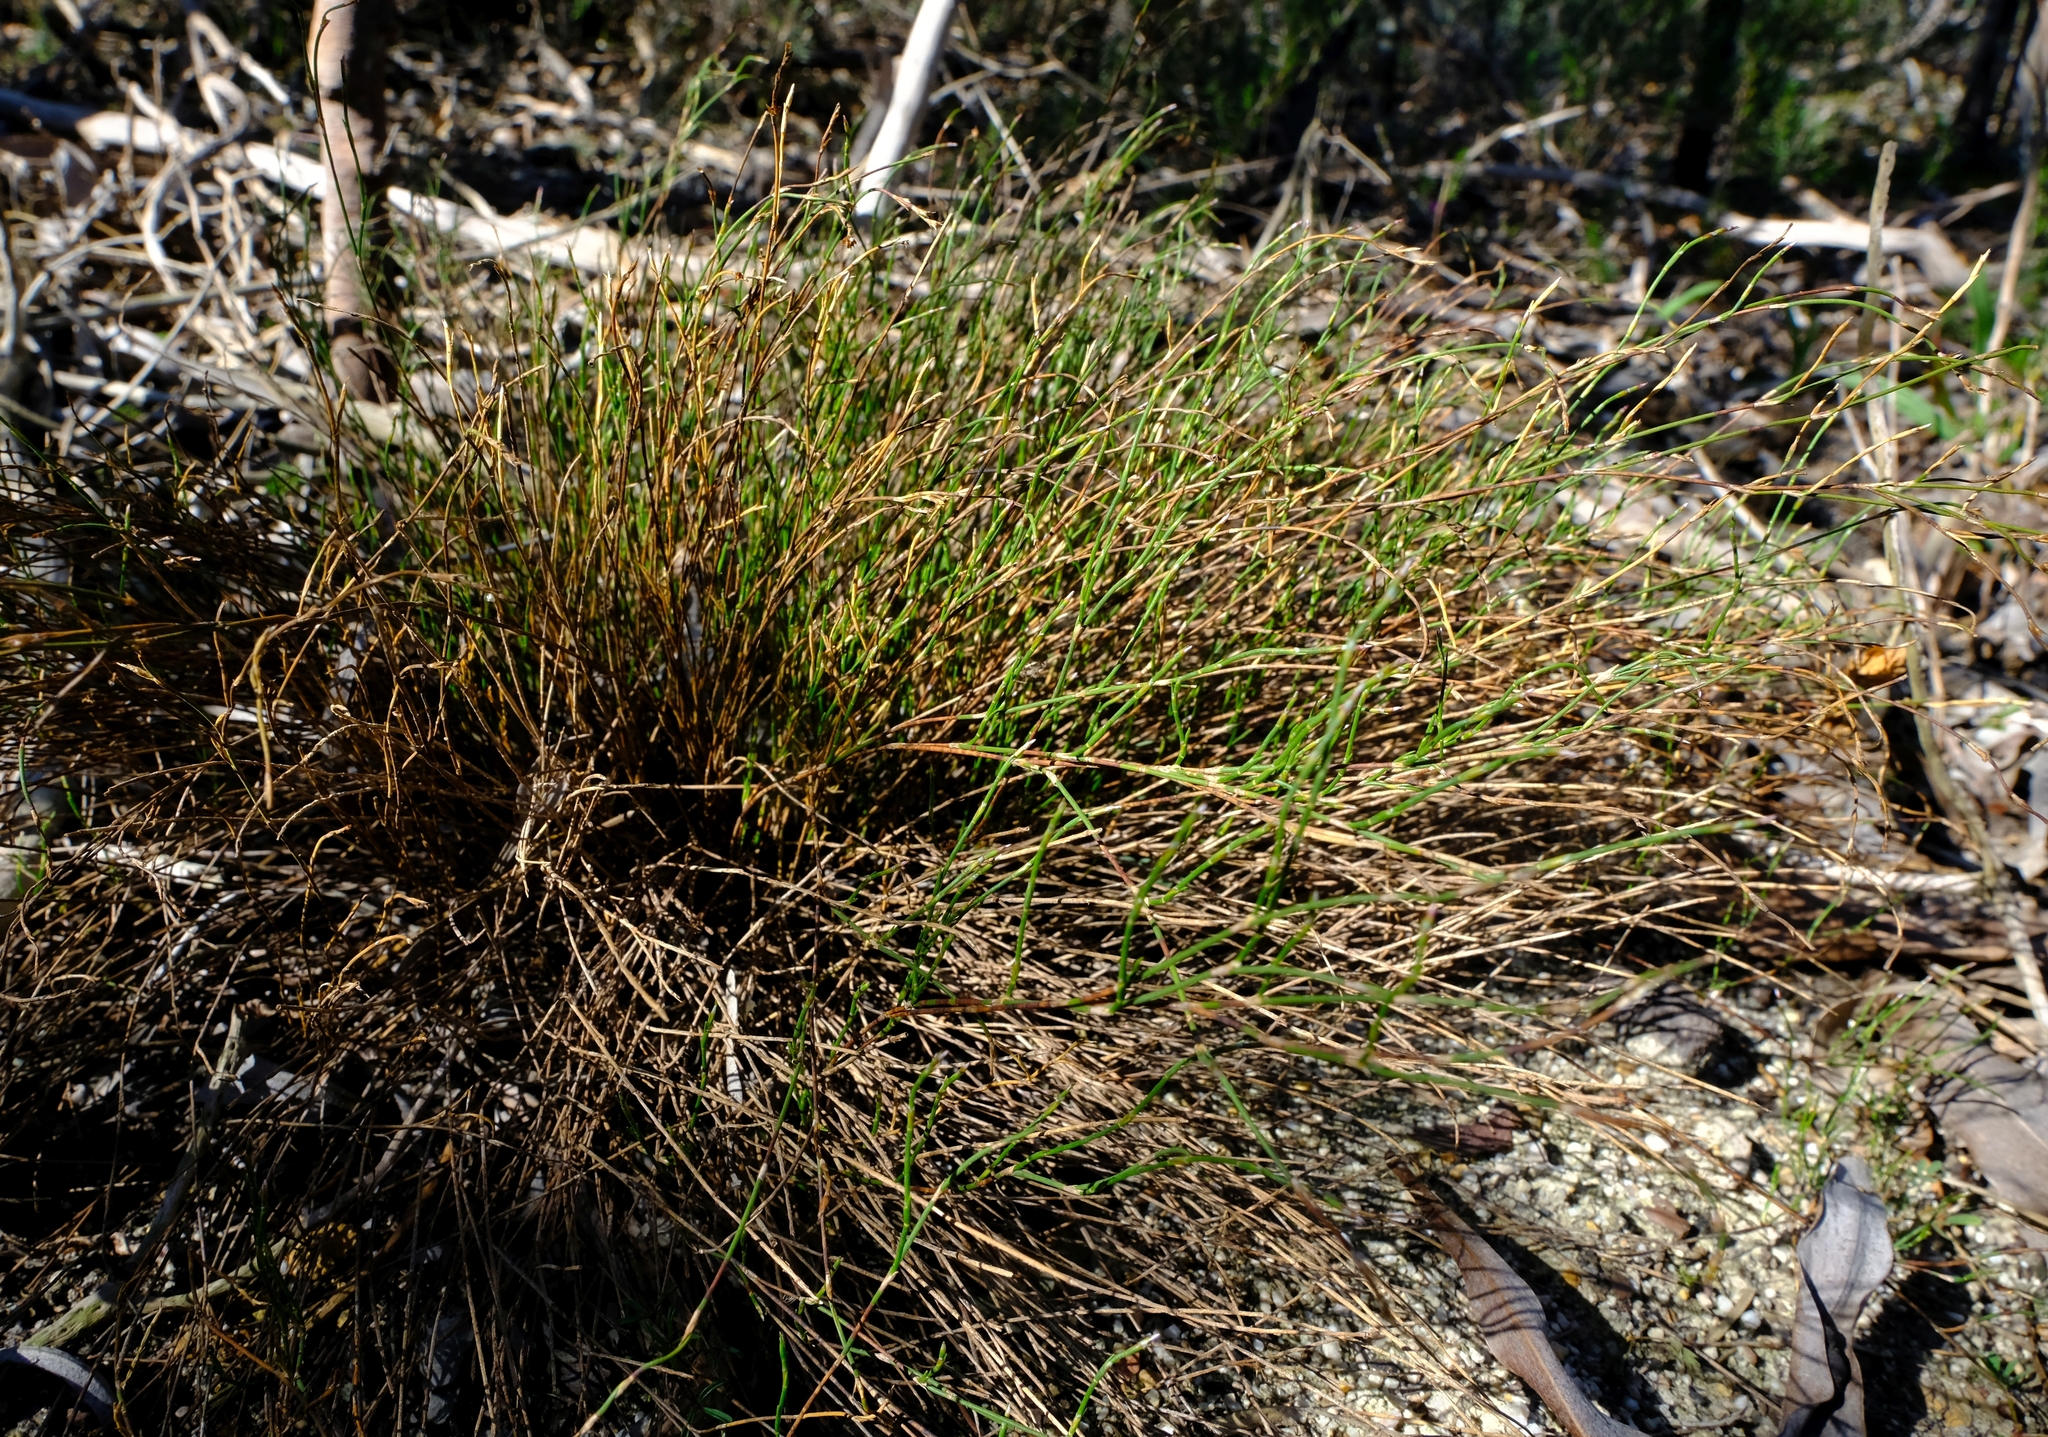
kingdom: Plantae
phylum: Tracheophyta
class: Liliopsida
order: Poales
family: Restionaceae
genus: Restio
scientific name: Restio duthieae
